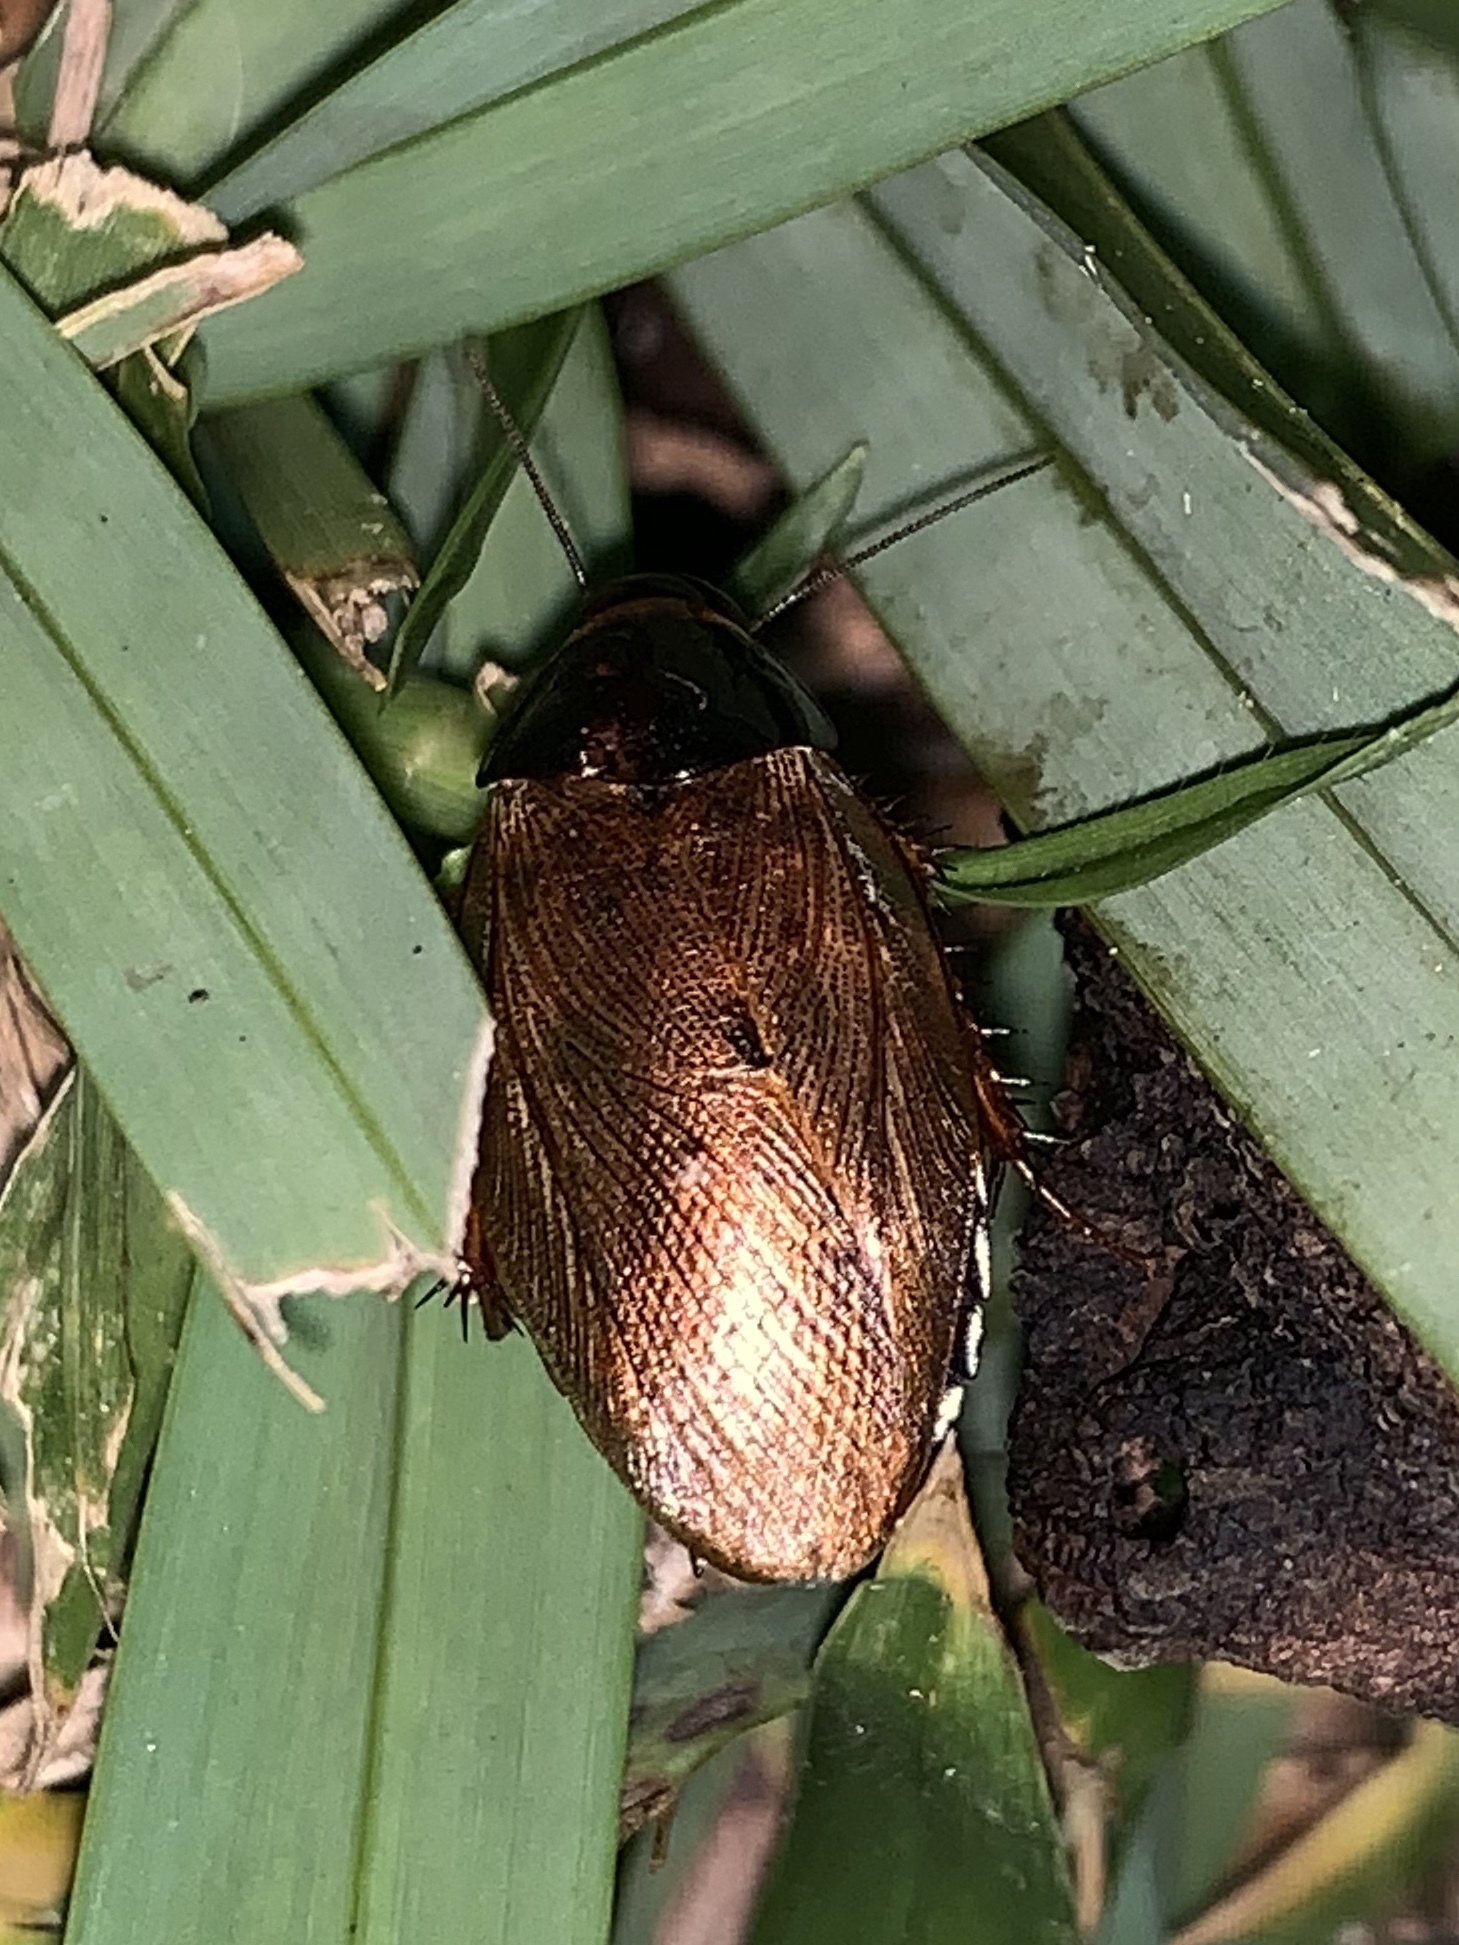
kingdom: Animalia
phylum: Arthropoda
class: Insecta
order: Blattodea
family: Blaberidae
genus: Pycnoscelus
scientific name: Pycnoscelus surinamensis
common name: Surinam cockroach
